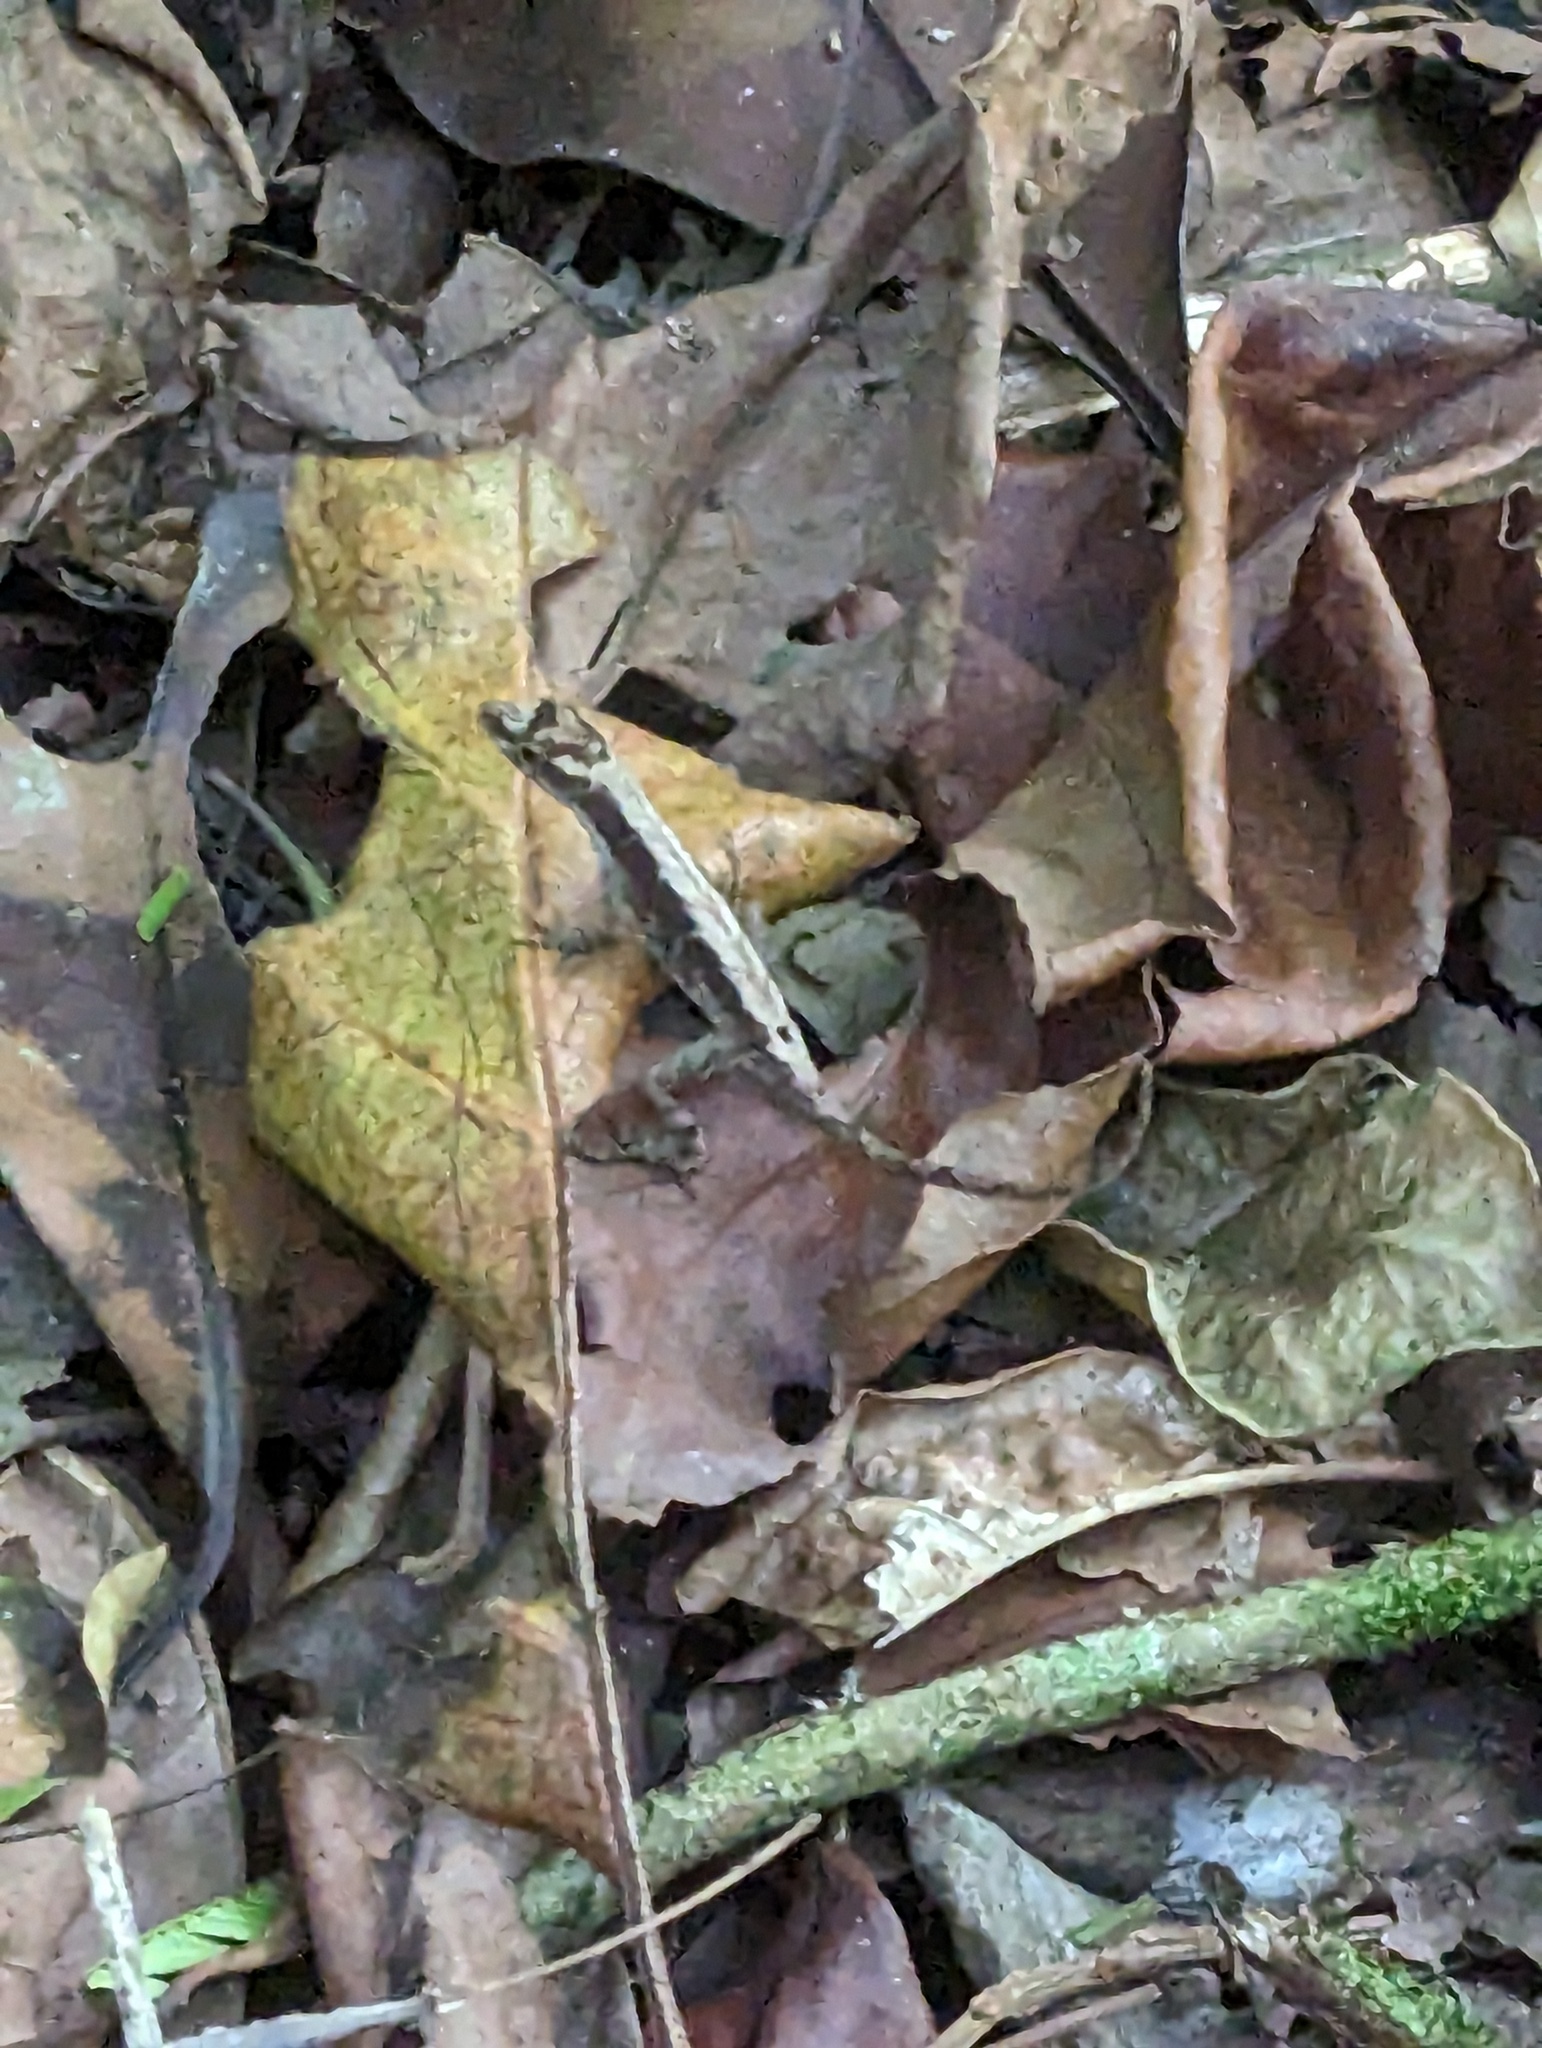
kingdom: Animalia
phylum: Chordata
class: Squamata
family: Dactyloidae
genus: Anolis
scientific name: Anolis humilis
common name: Humble anole
